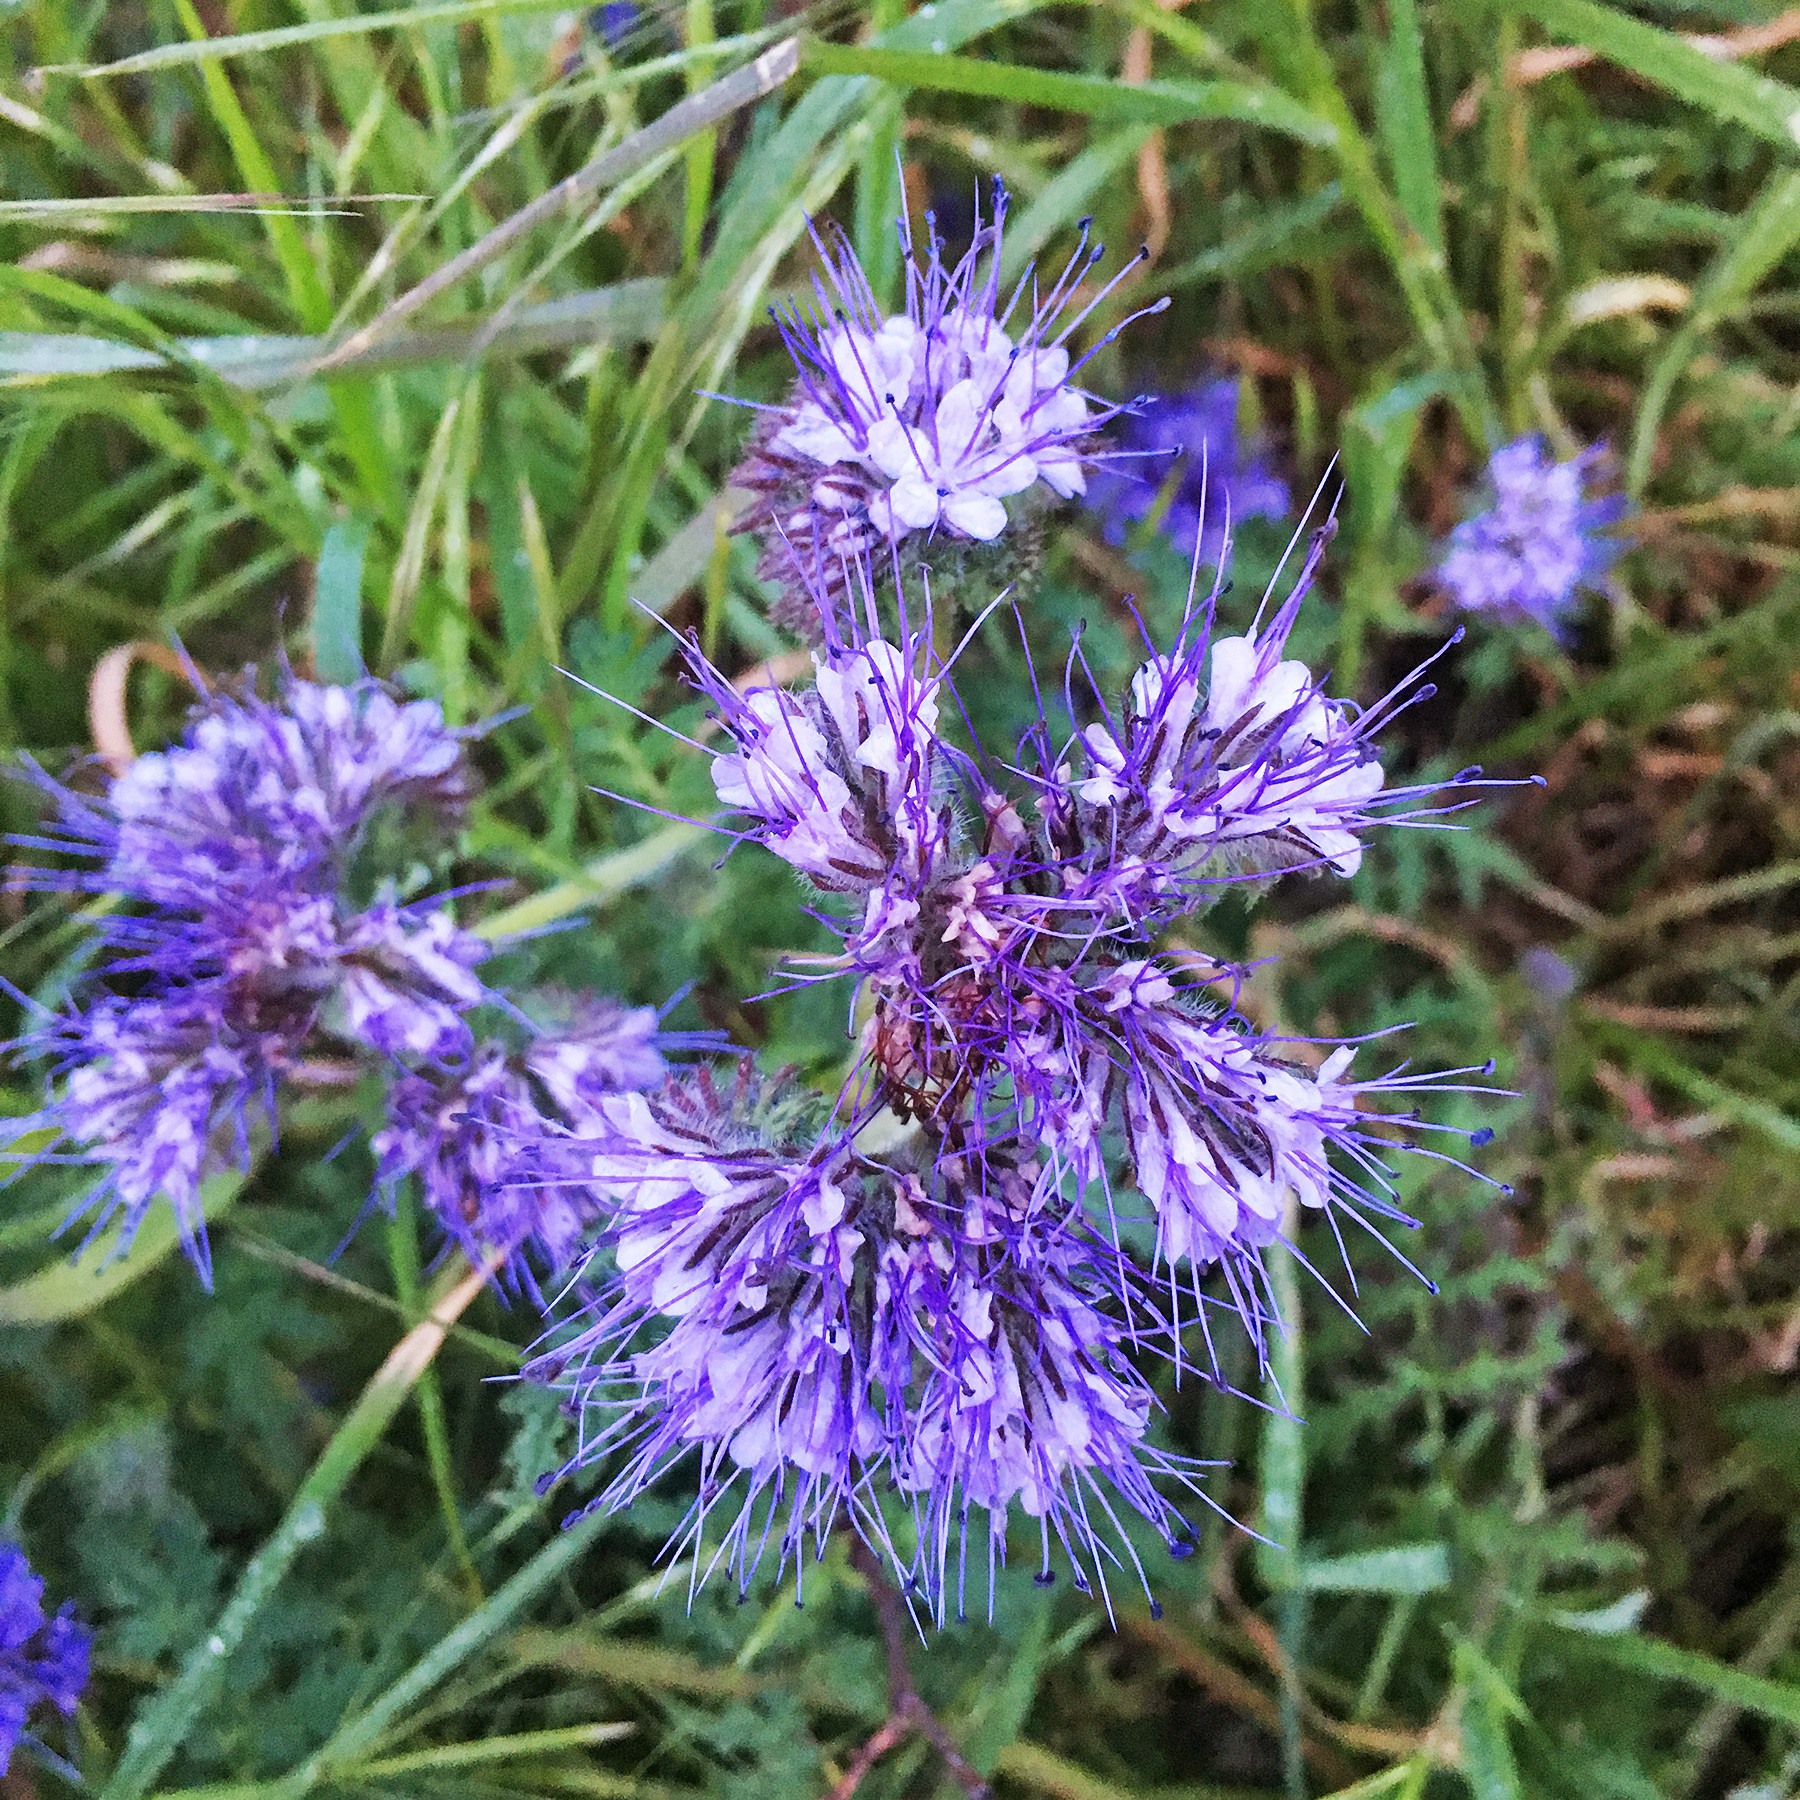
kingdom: Plantae
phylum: Tracheophyta
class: Magnoliopsida
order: Boraginales
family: Hydrophyllaceae
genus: Phacelia
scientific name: Phacelia tanacetifolia
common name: Phacelia
